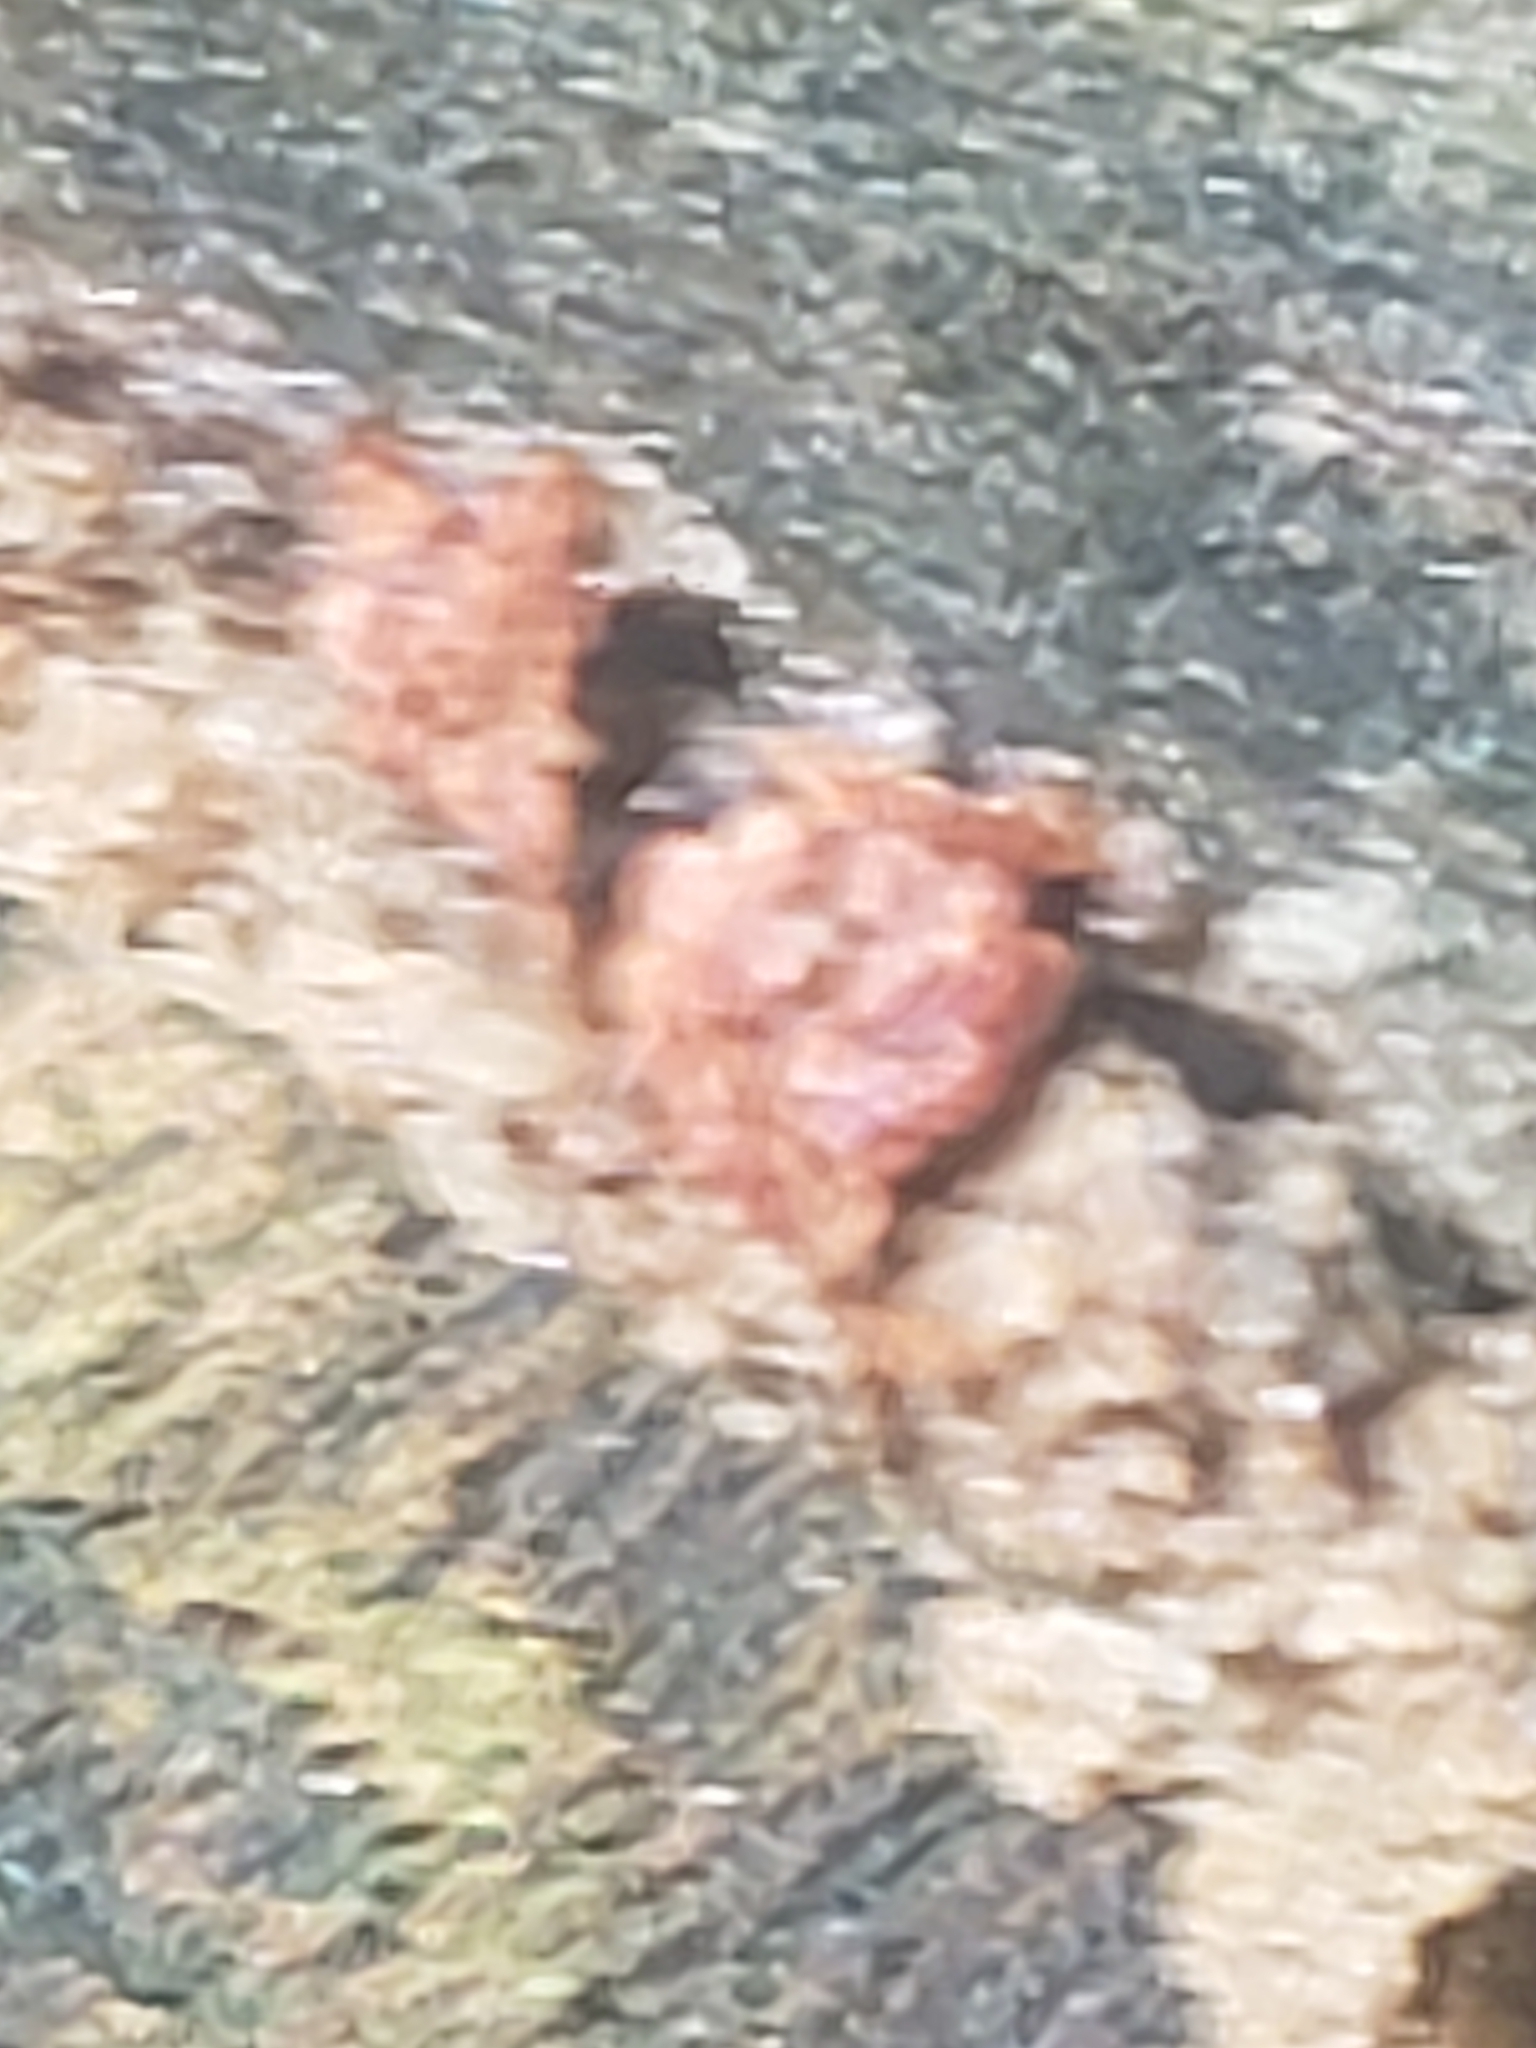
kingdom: Protozoa
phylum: Mycetozoa
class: Myxomycetes
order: Trichiales
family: Trichiaceae
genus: Metatrichia
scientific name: Metatrichia vesparia
